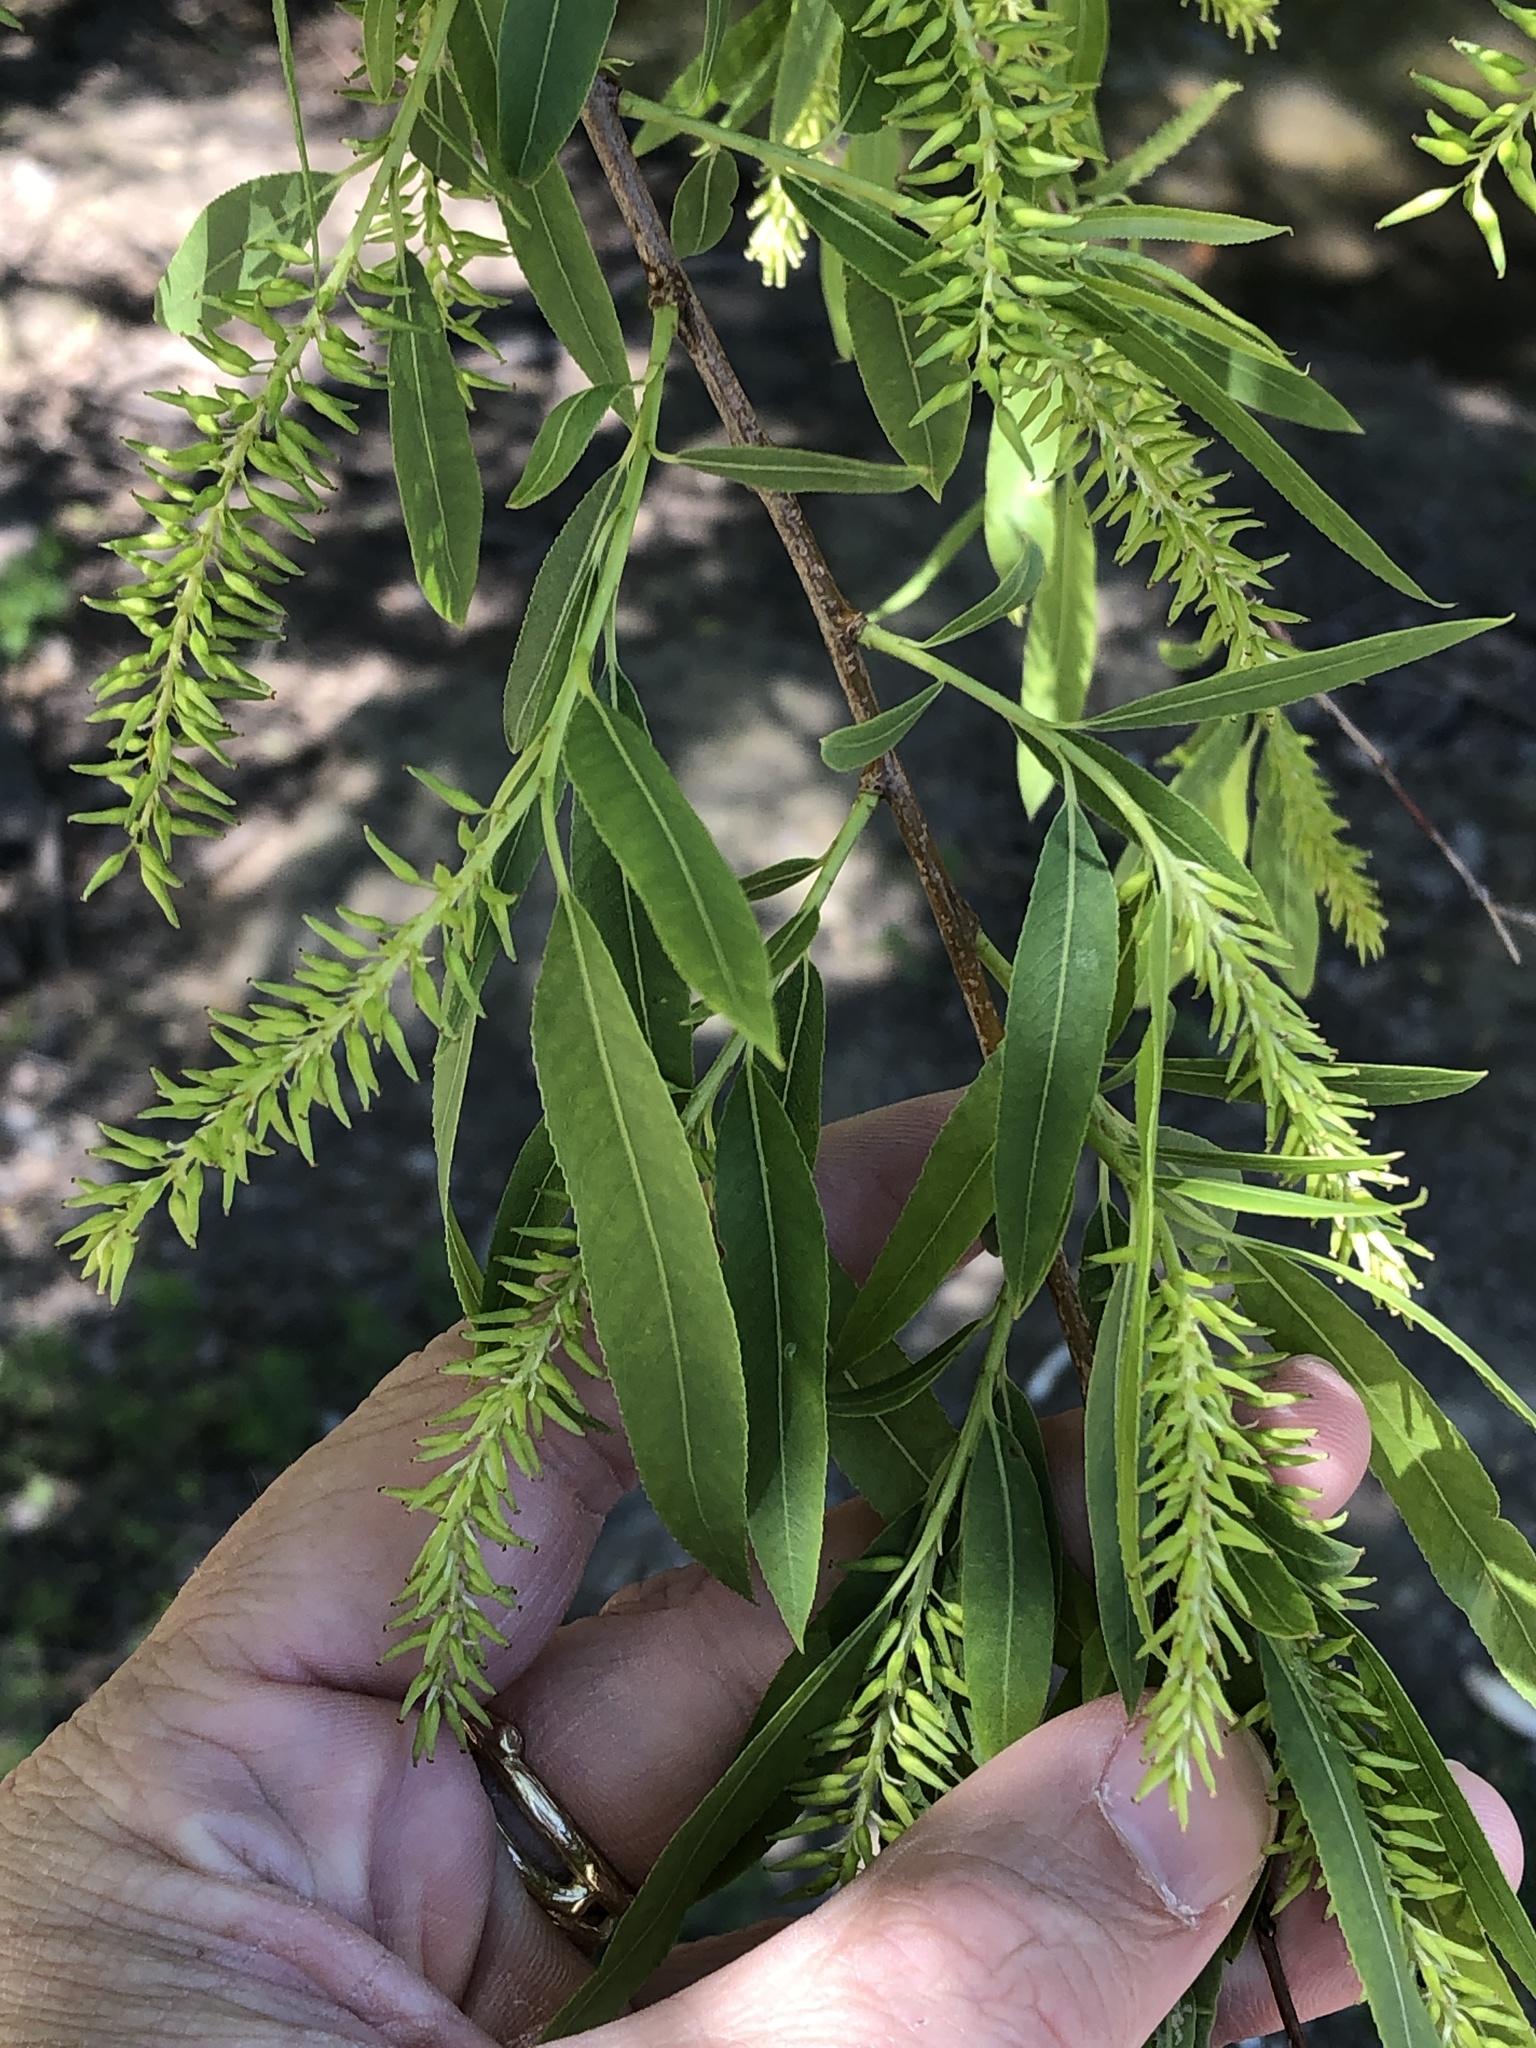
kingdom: Plantae
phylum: Tracheophyta
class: Magnoliopsida
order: Malpighiales
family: Salicaceae
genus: Salix
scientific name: Salix nigra
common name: Black willow
